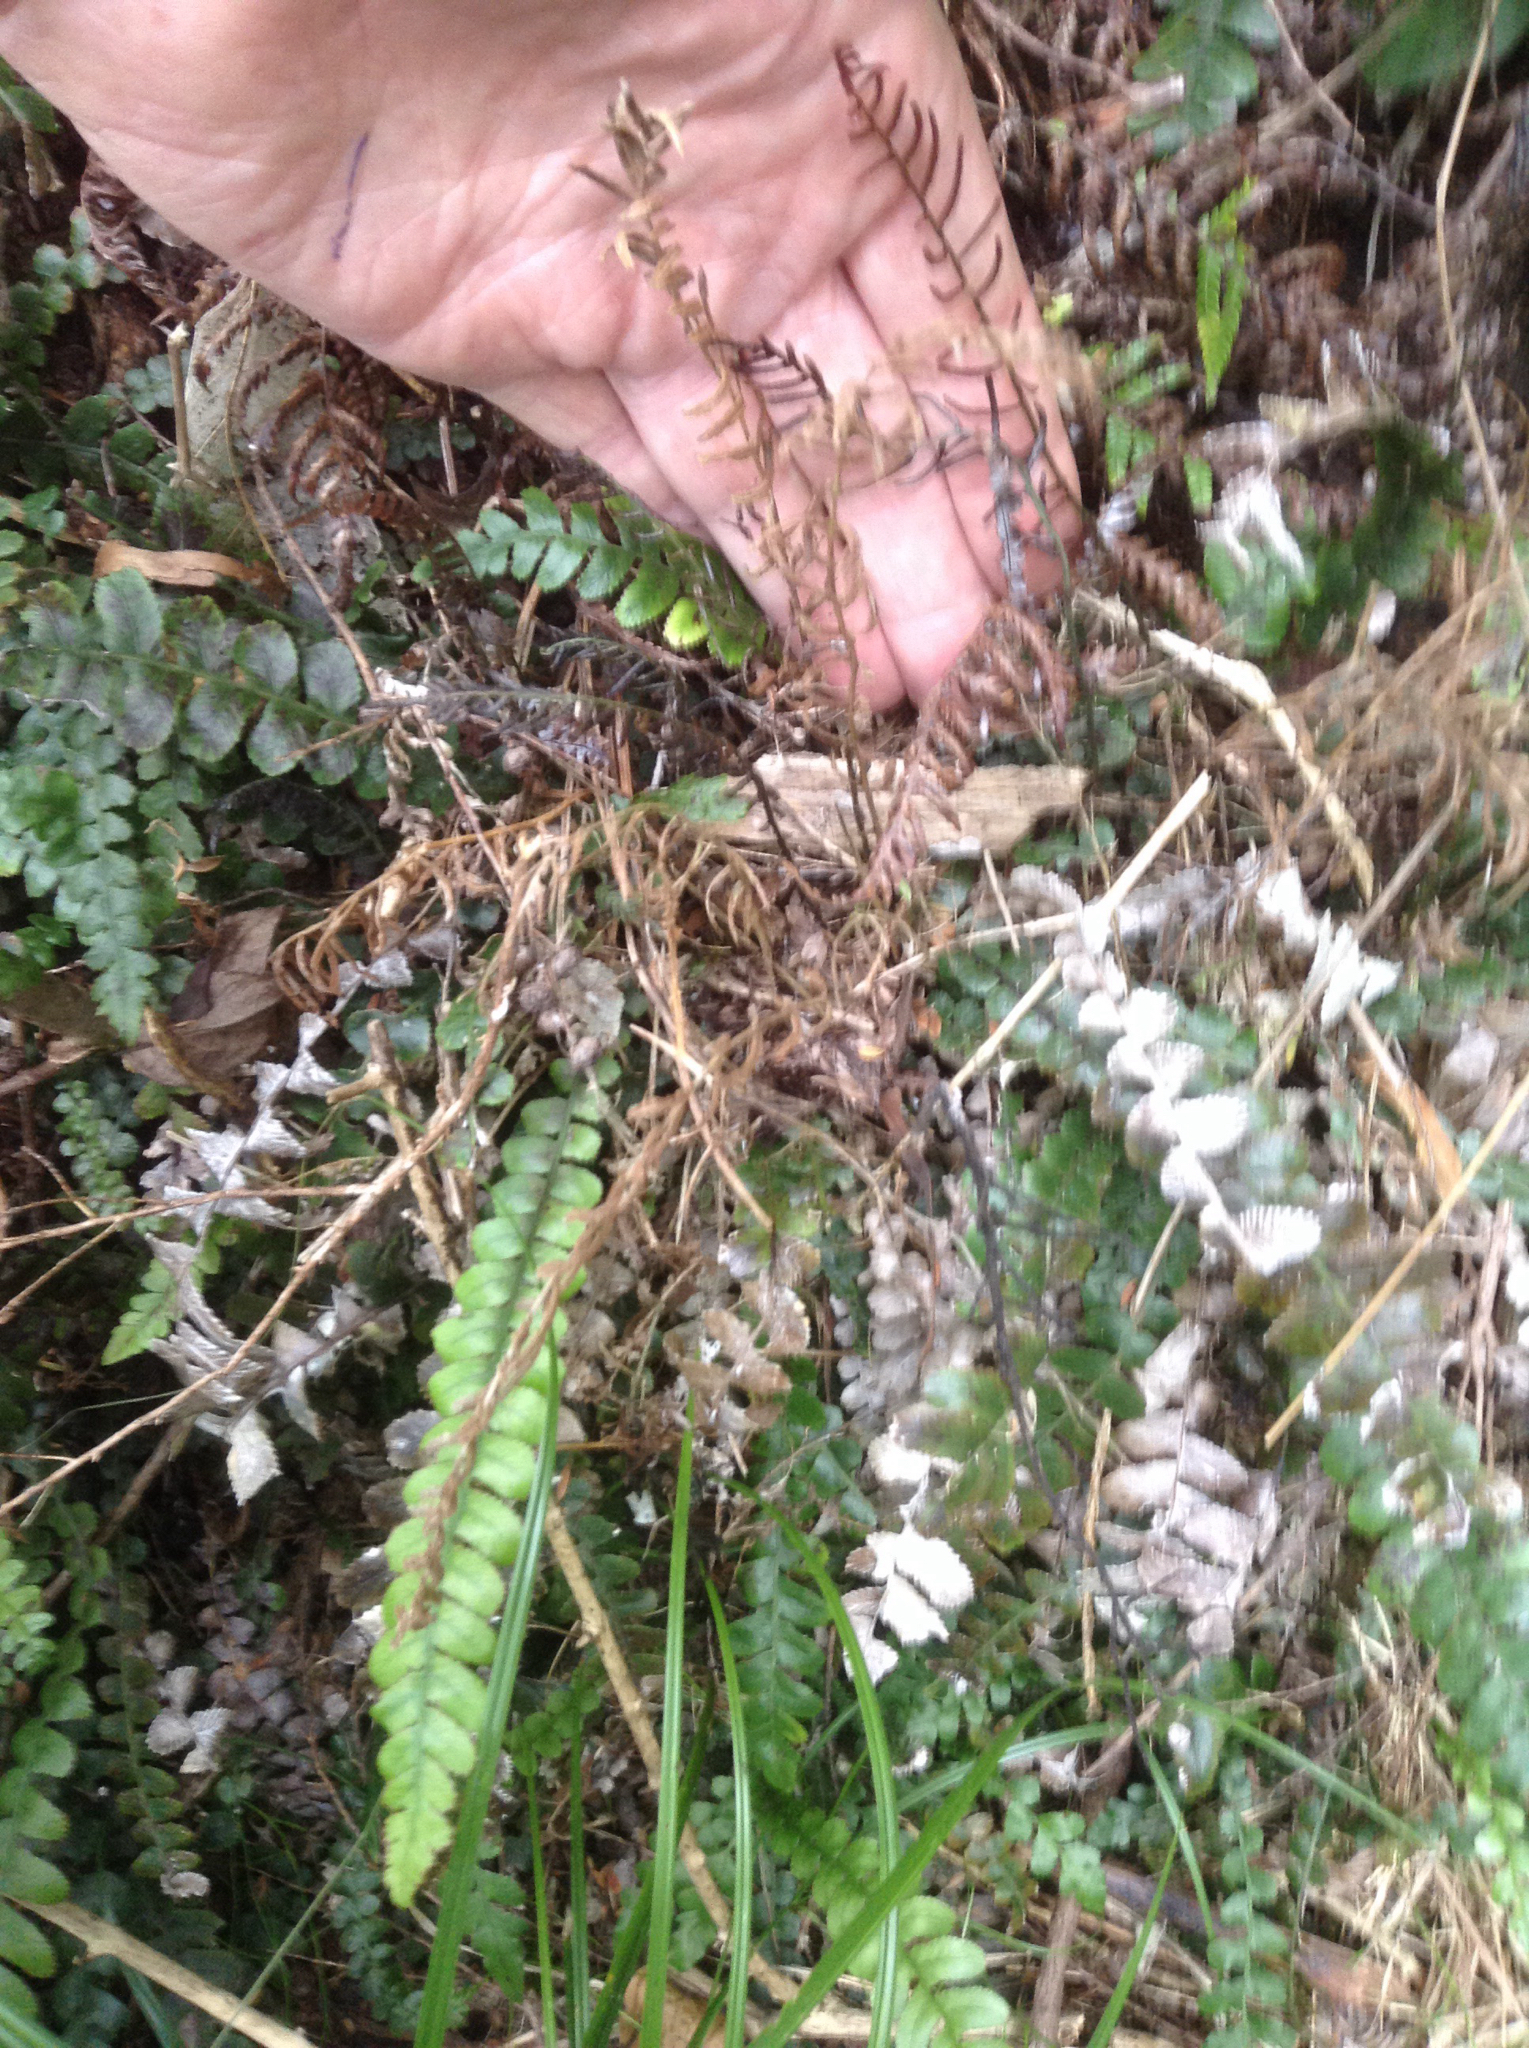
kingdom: Plantae
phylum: Tracheophyta
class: Polypodiopsida
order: Polypodiales
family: Blechnaceae
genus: Austroblechnum
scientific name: Austroblechnum membranaceum
